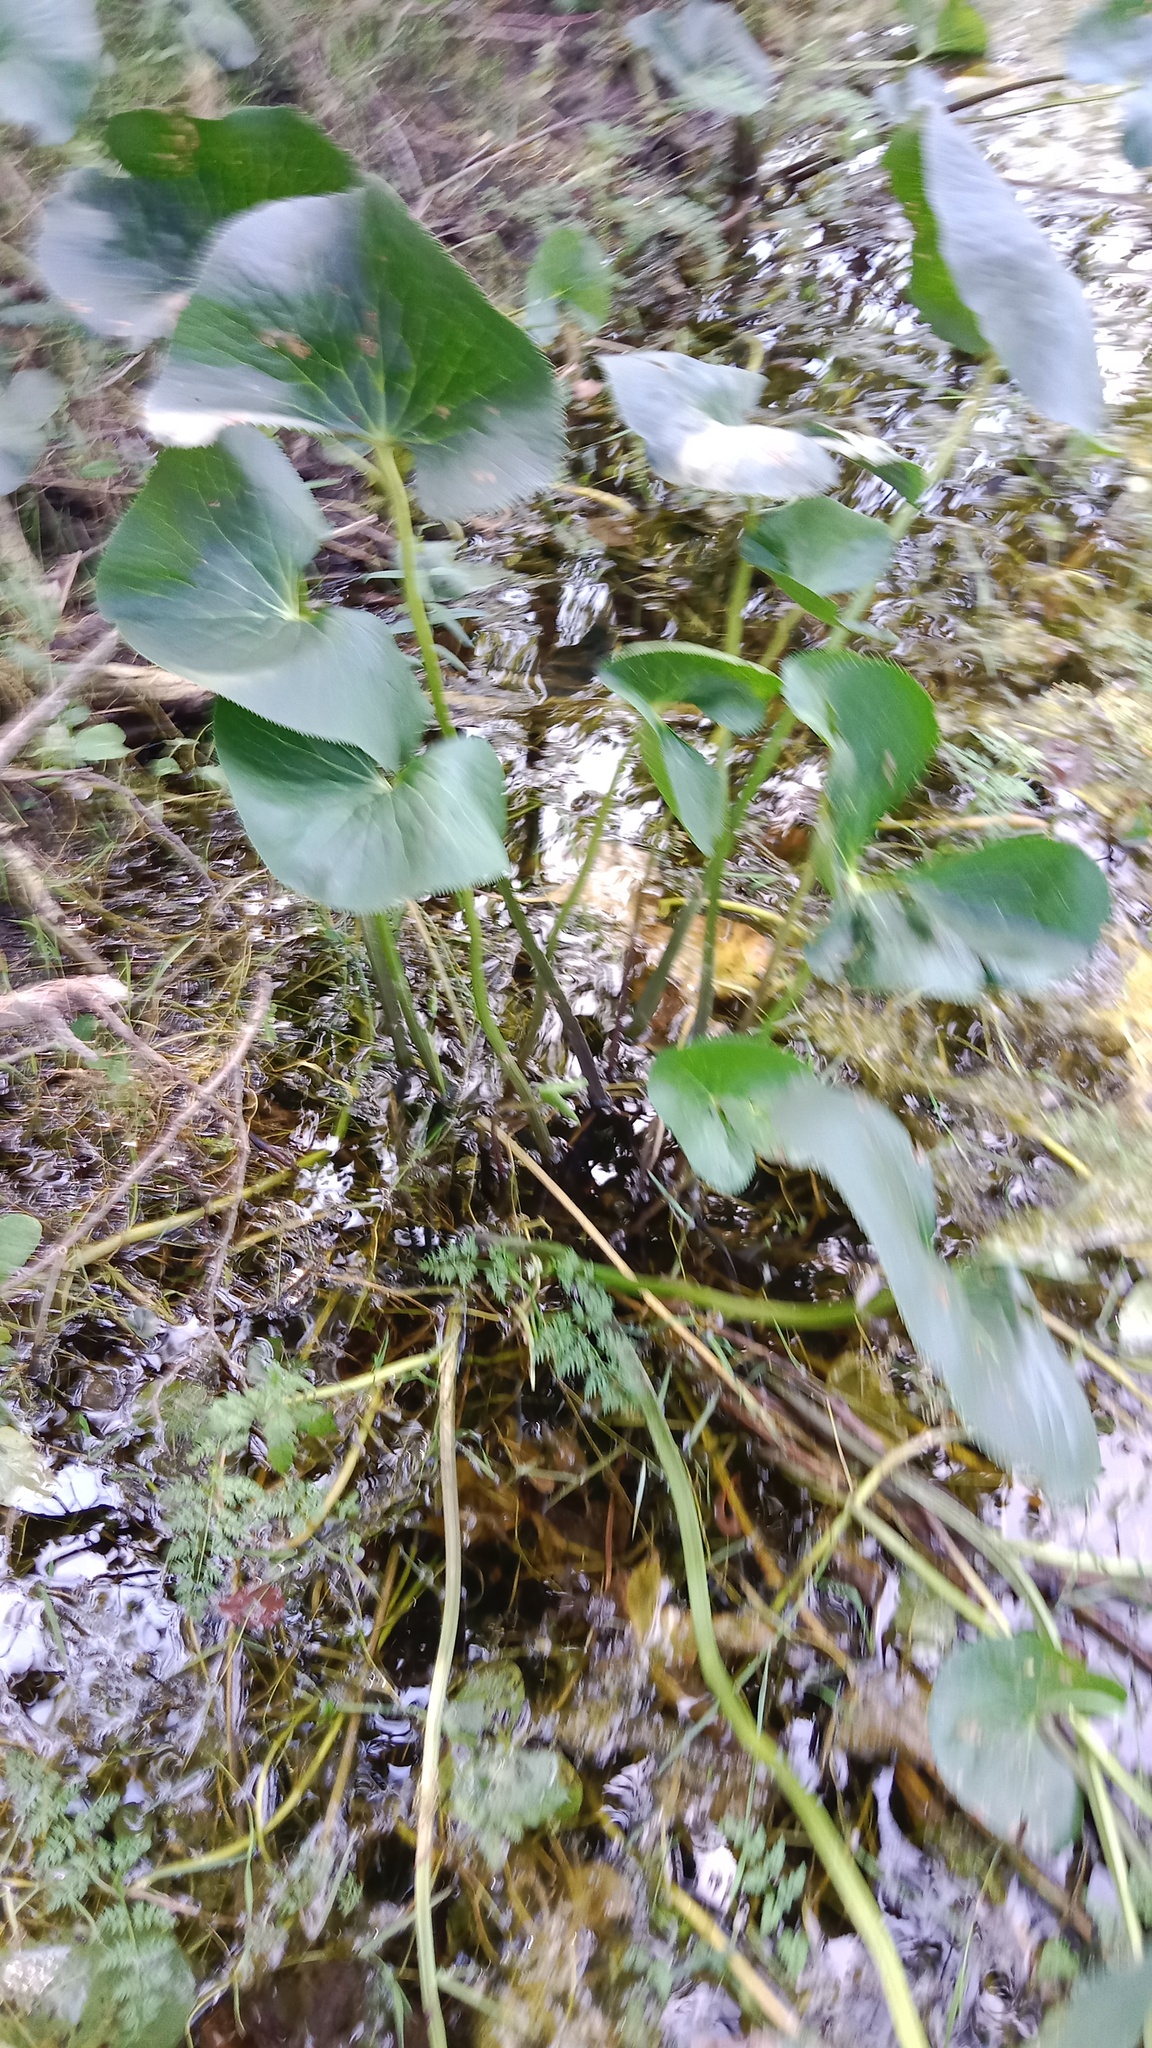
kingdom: Plantae
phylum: Tracheophyta
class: Magnoliopsida
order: Ranunculales
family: Ranunculaceae
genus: Caltha
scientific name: Caltha palustris
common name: Marsh marigold
